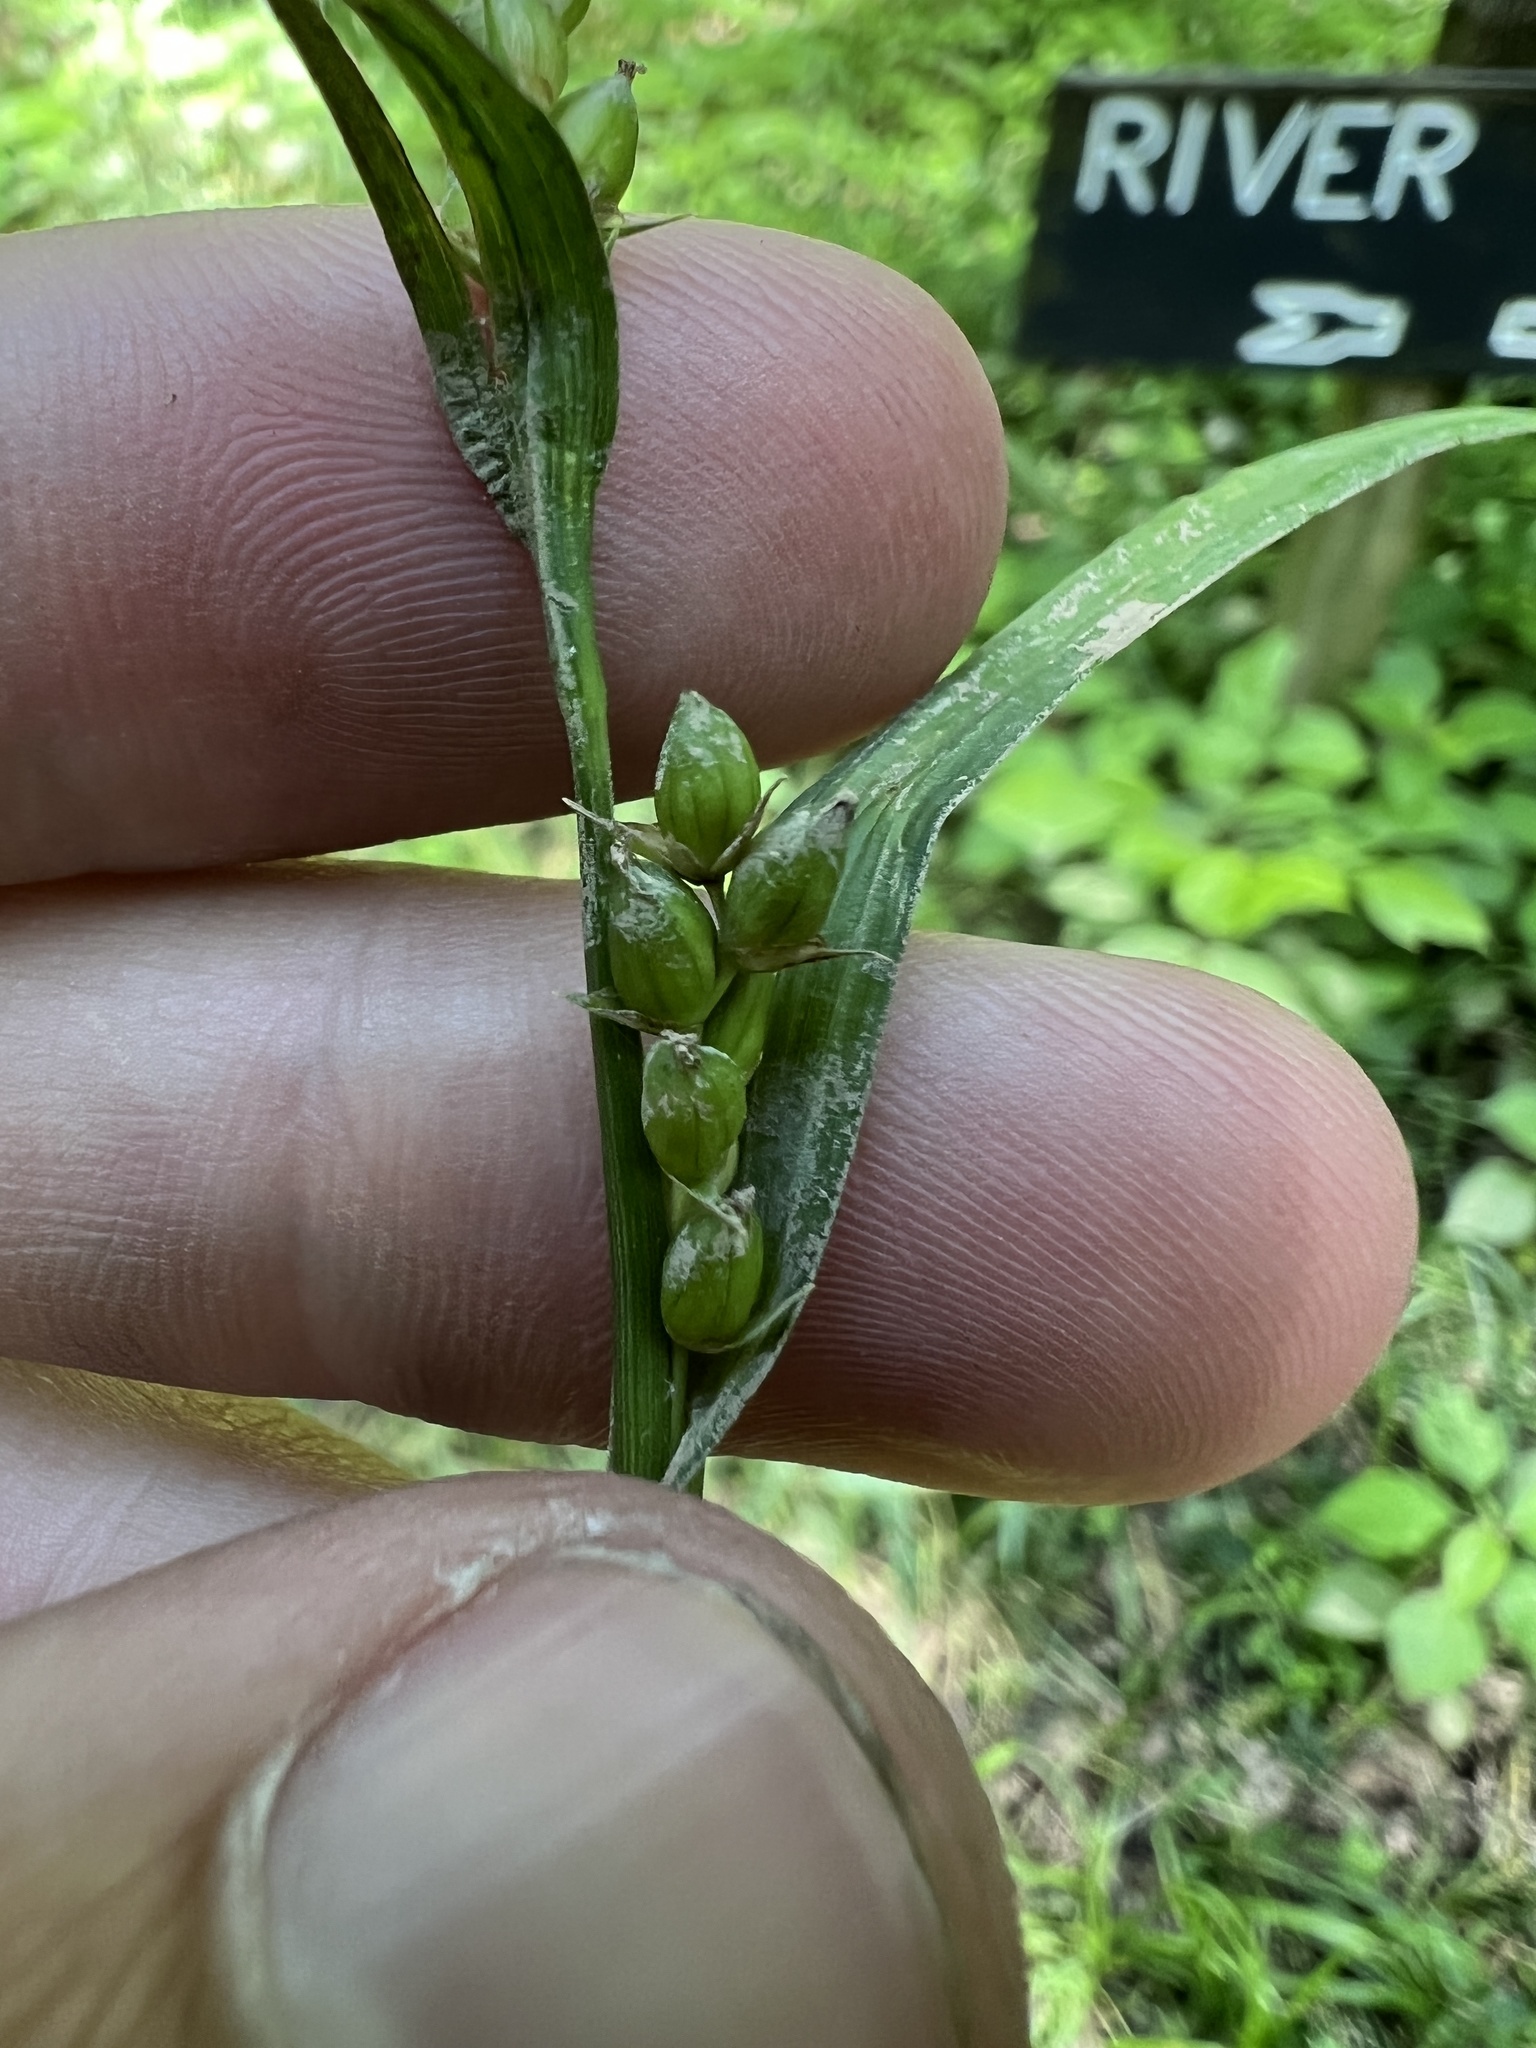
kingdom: Plantae
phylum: Tracheophyta
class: Liliopsida
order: Poales
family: Cyperaceae
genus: Carex
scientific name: Carex grisea
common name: Eastern narrow-leaved sedge
